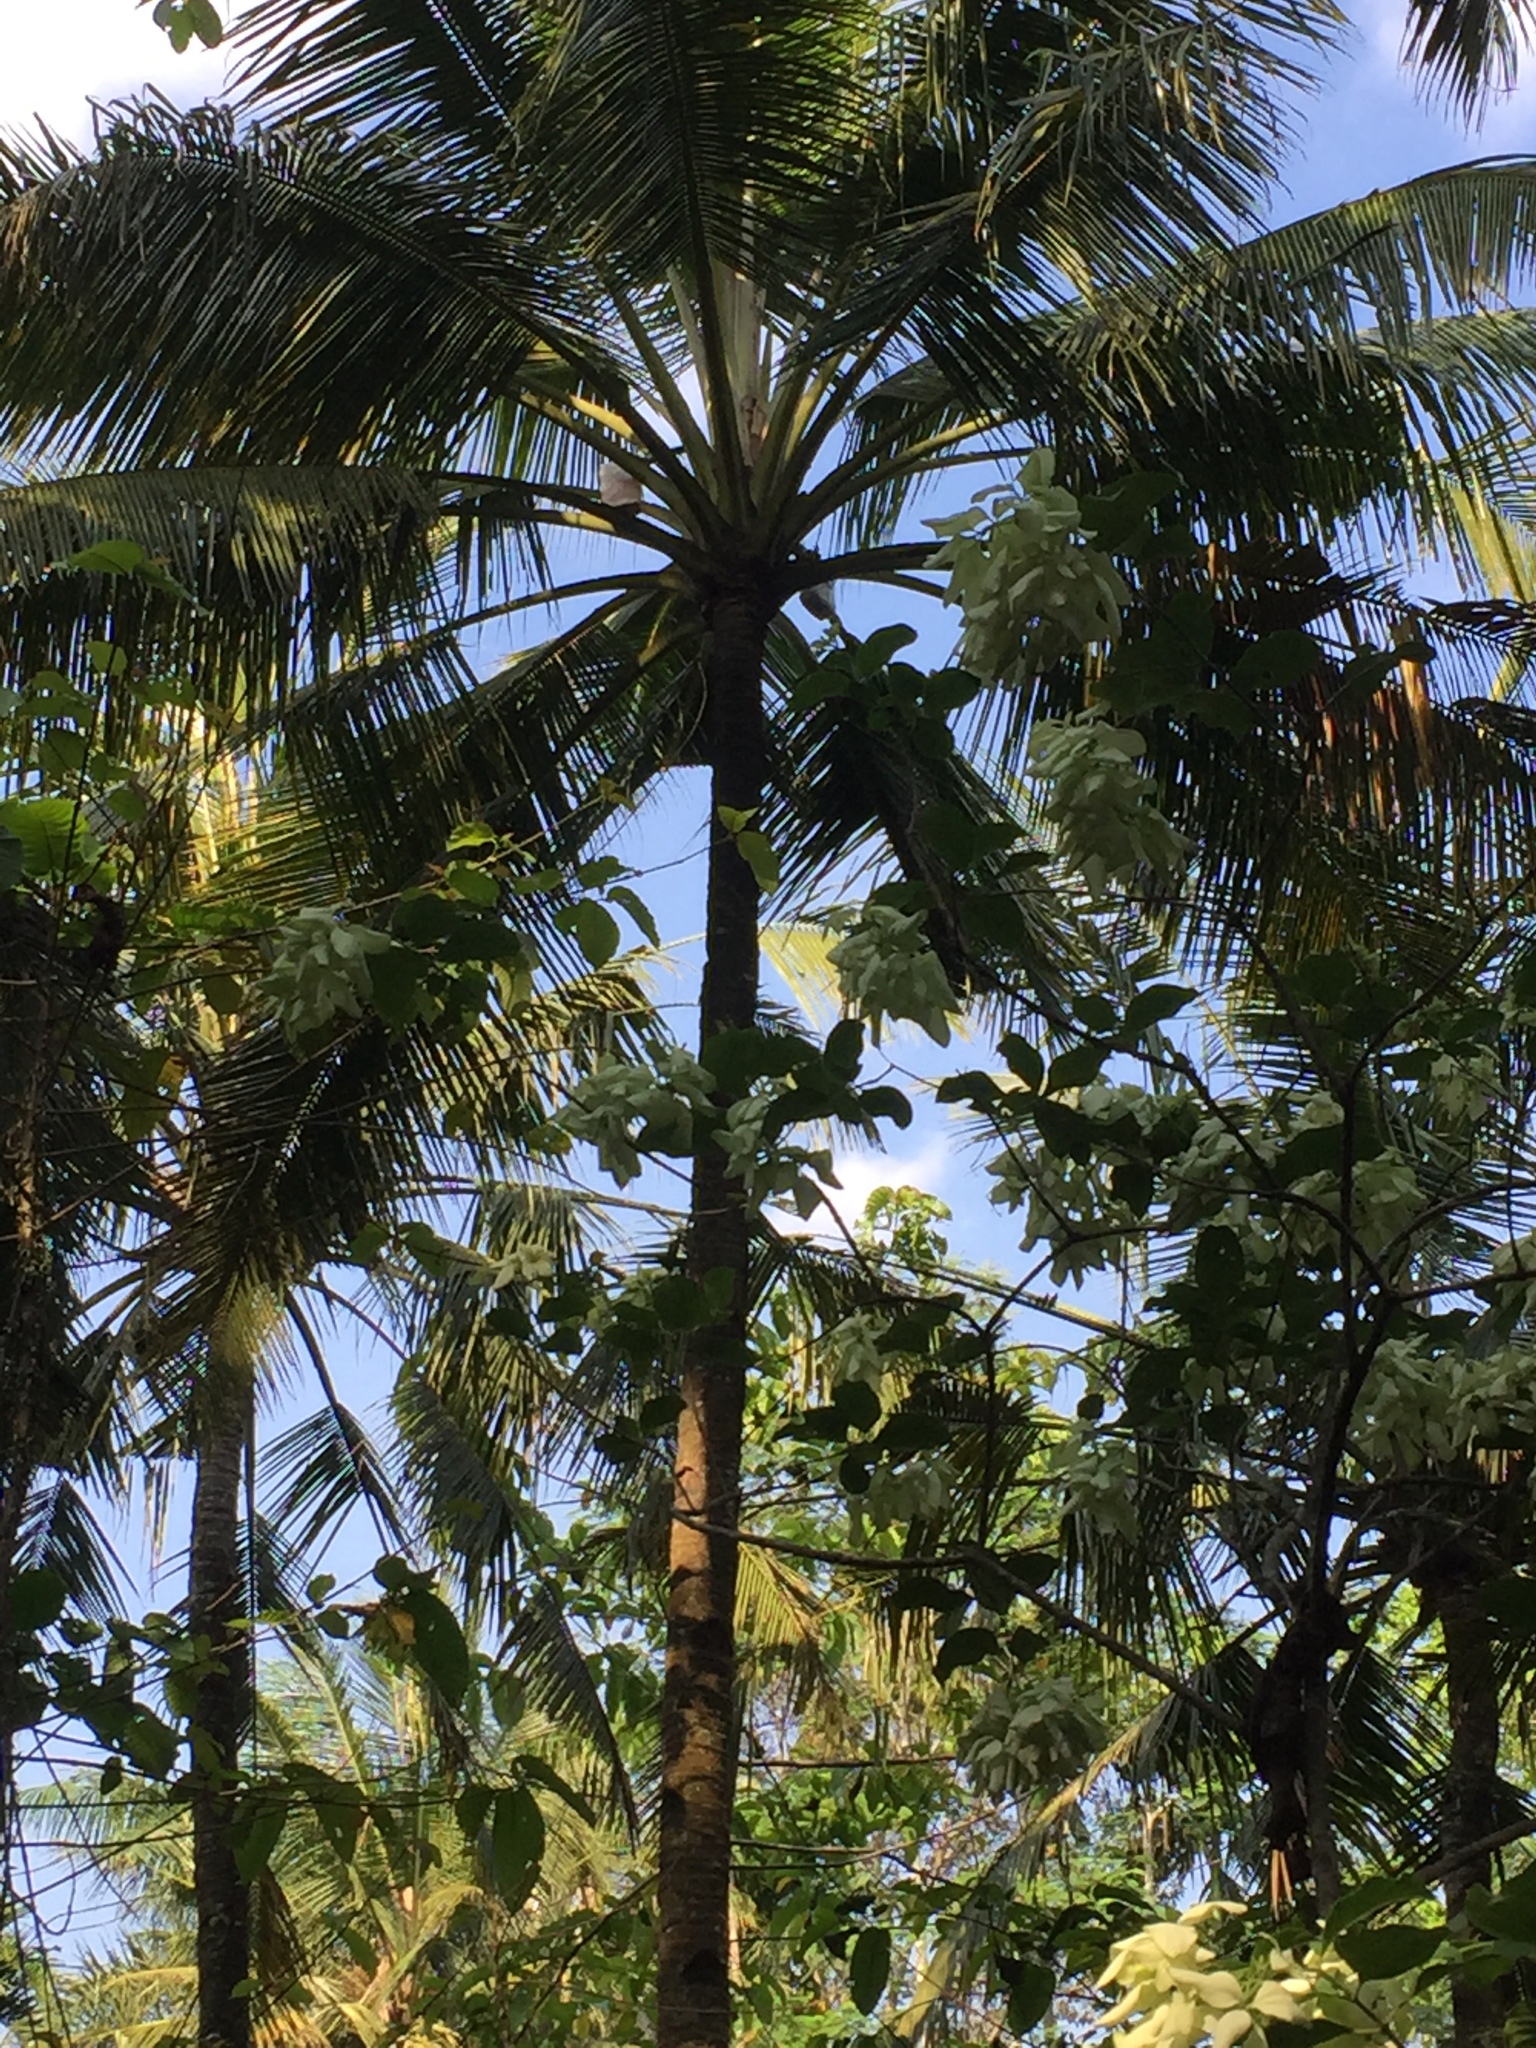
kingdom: Plantae
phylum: Tracheophyta
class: Liliopsida
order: Arecales
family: Arecaceae
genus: Cocos
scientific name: Cocos nucifera
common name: Coconut palm
